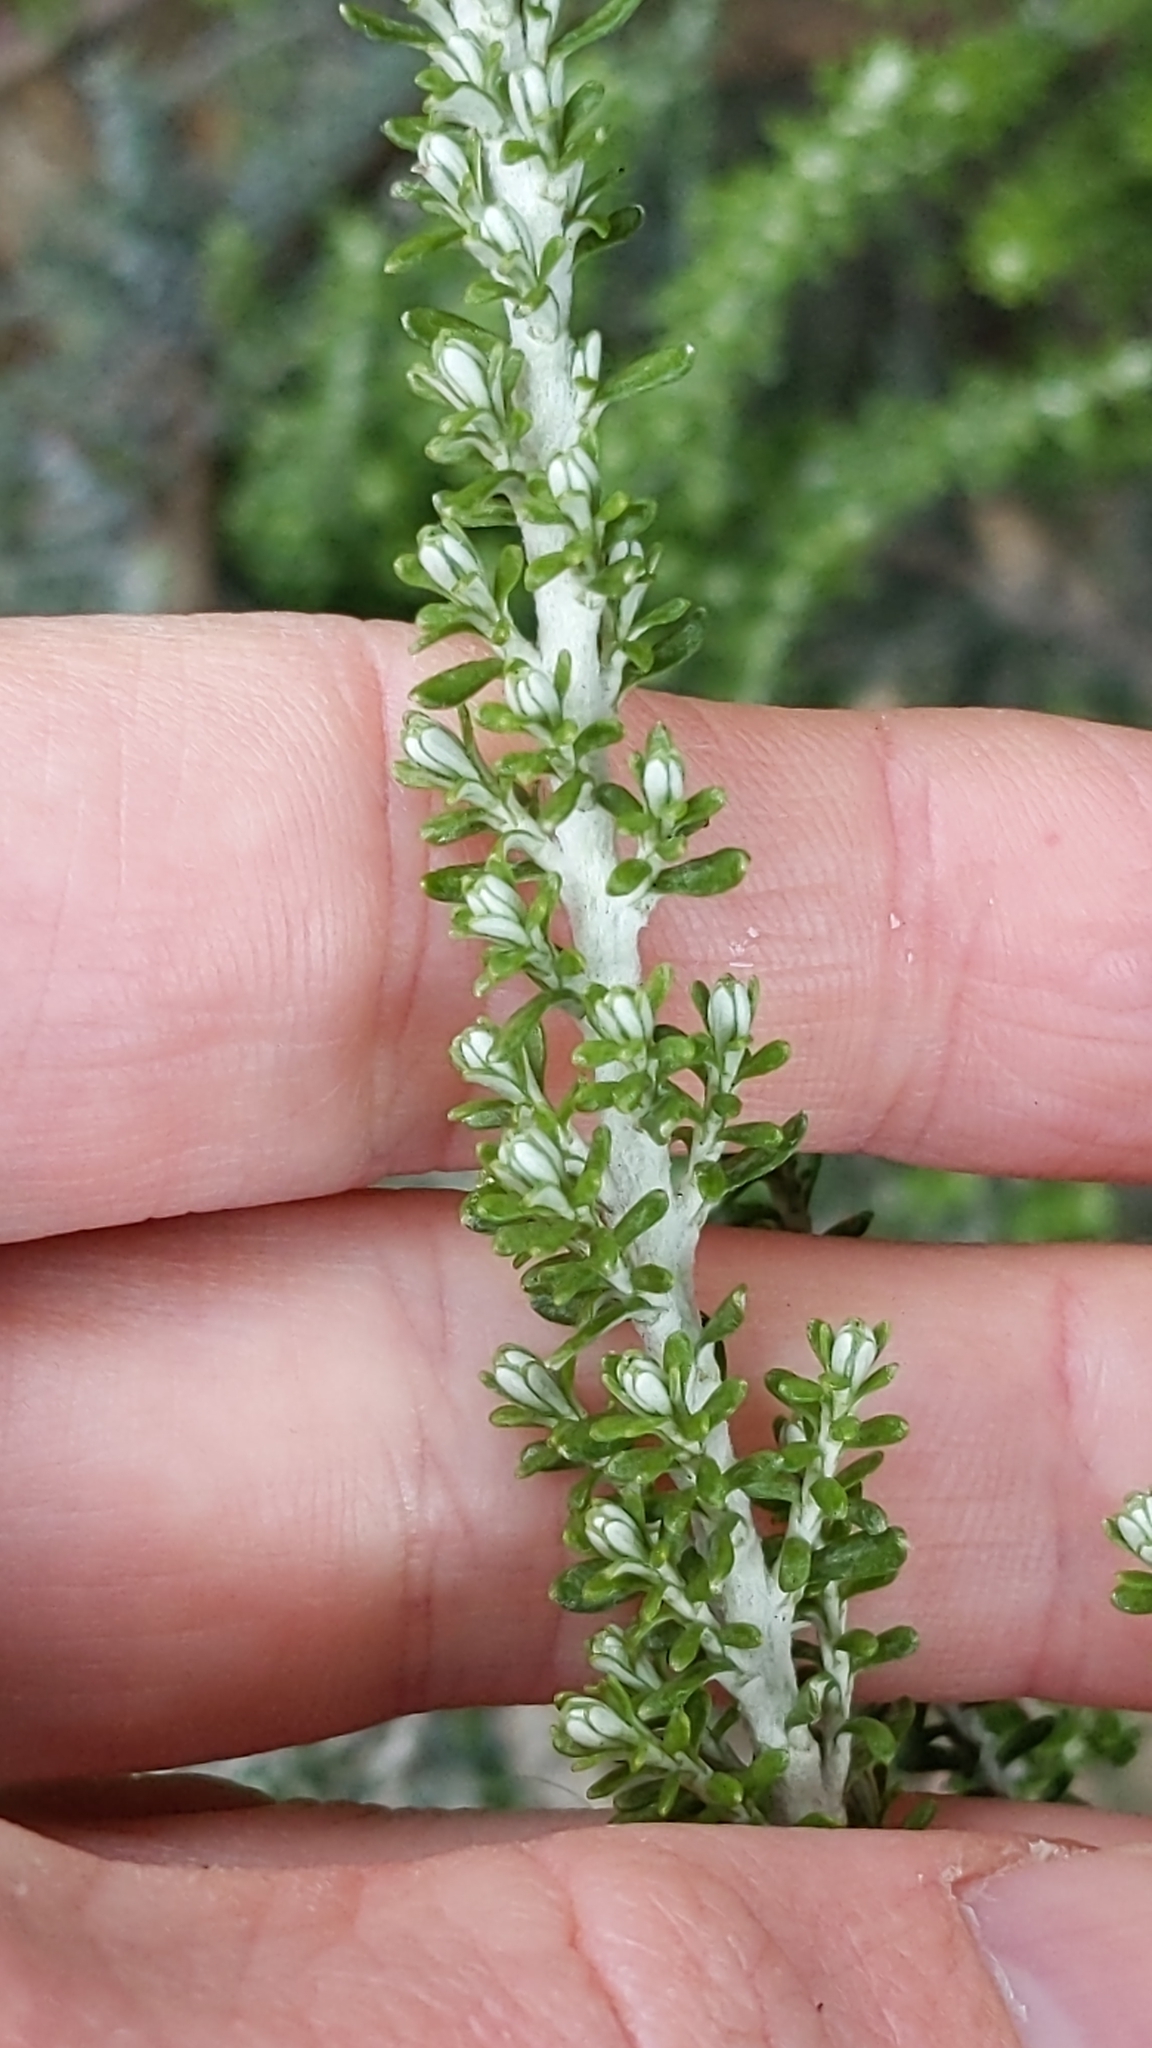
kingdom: Plantae
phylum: Tracheophyta
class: Magnoliopsida
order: Asterales
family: Asteraceae
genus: Ozothamnus
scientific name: Ozothamnus leptophyllus
